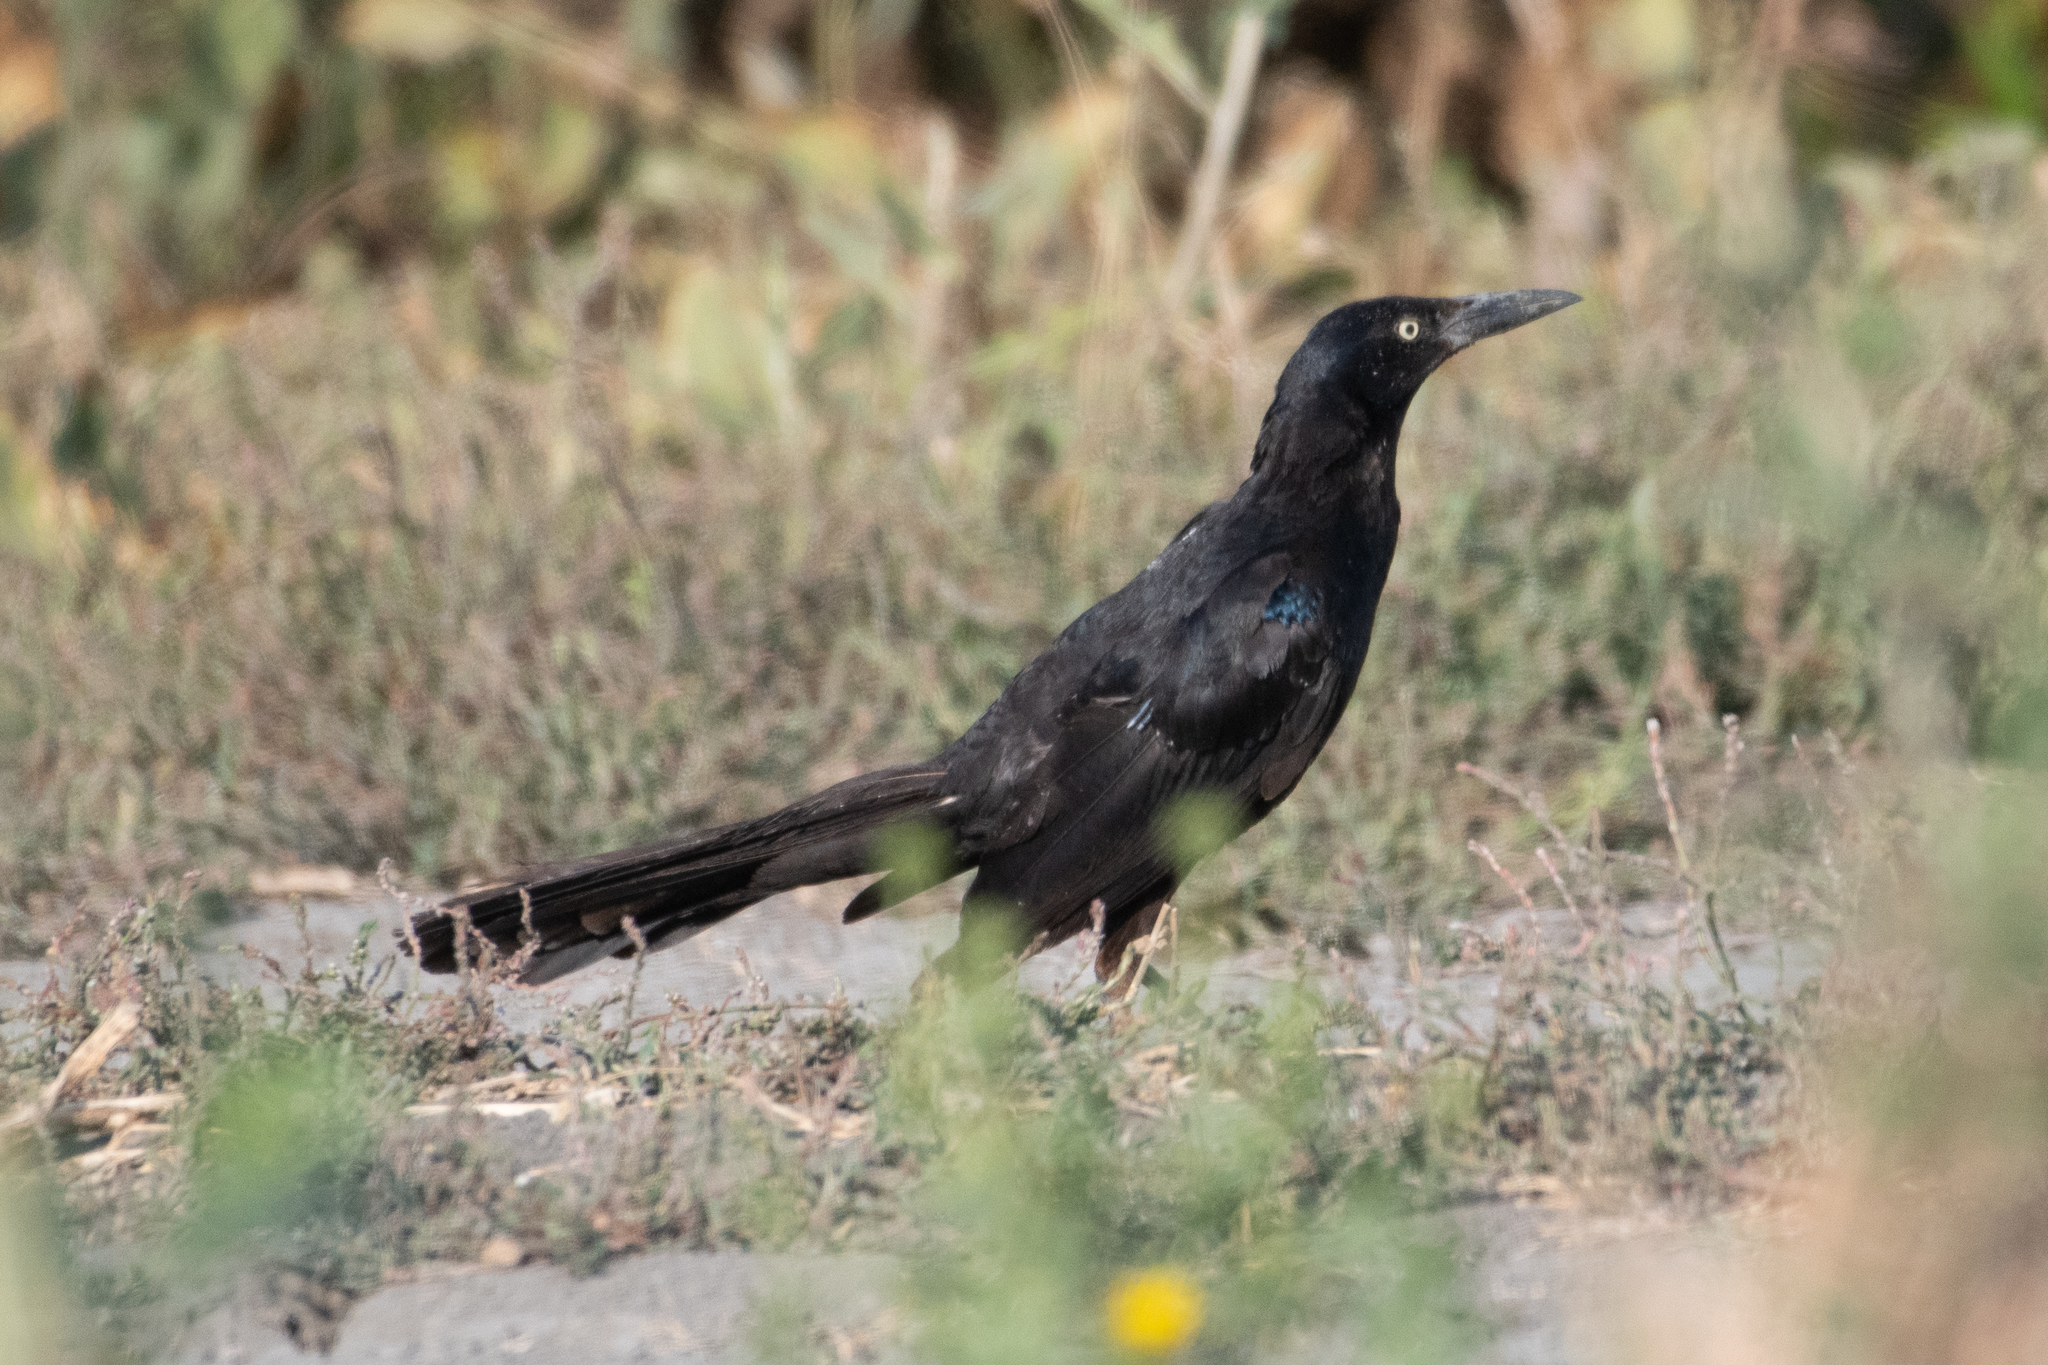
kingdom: Animalia
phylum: Chordata
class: Aves
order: Passeriformes
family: Icteridae
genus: Quiscalus
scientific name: Quiscalus mexicanus
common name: Great-tailed grackle
